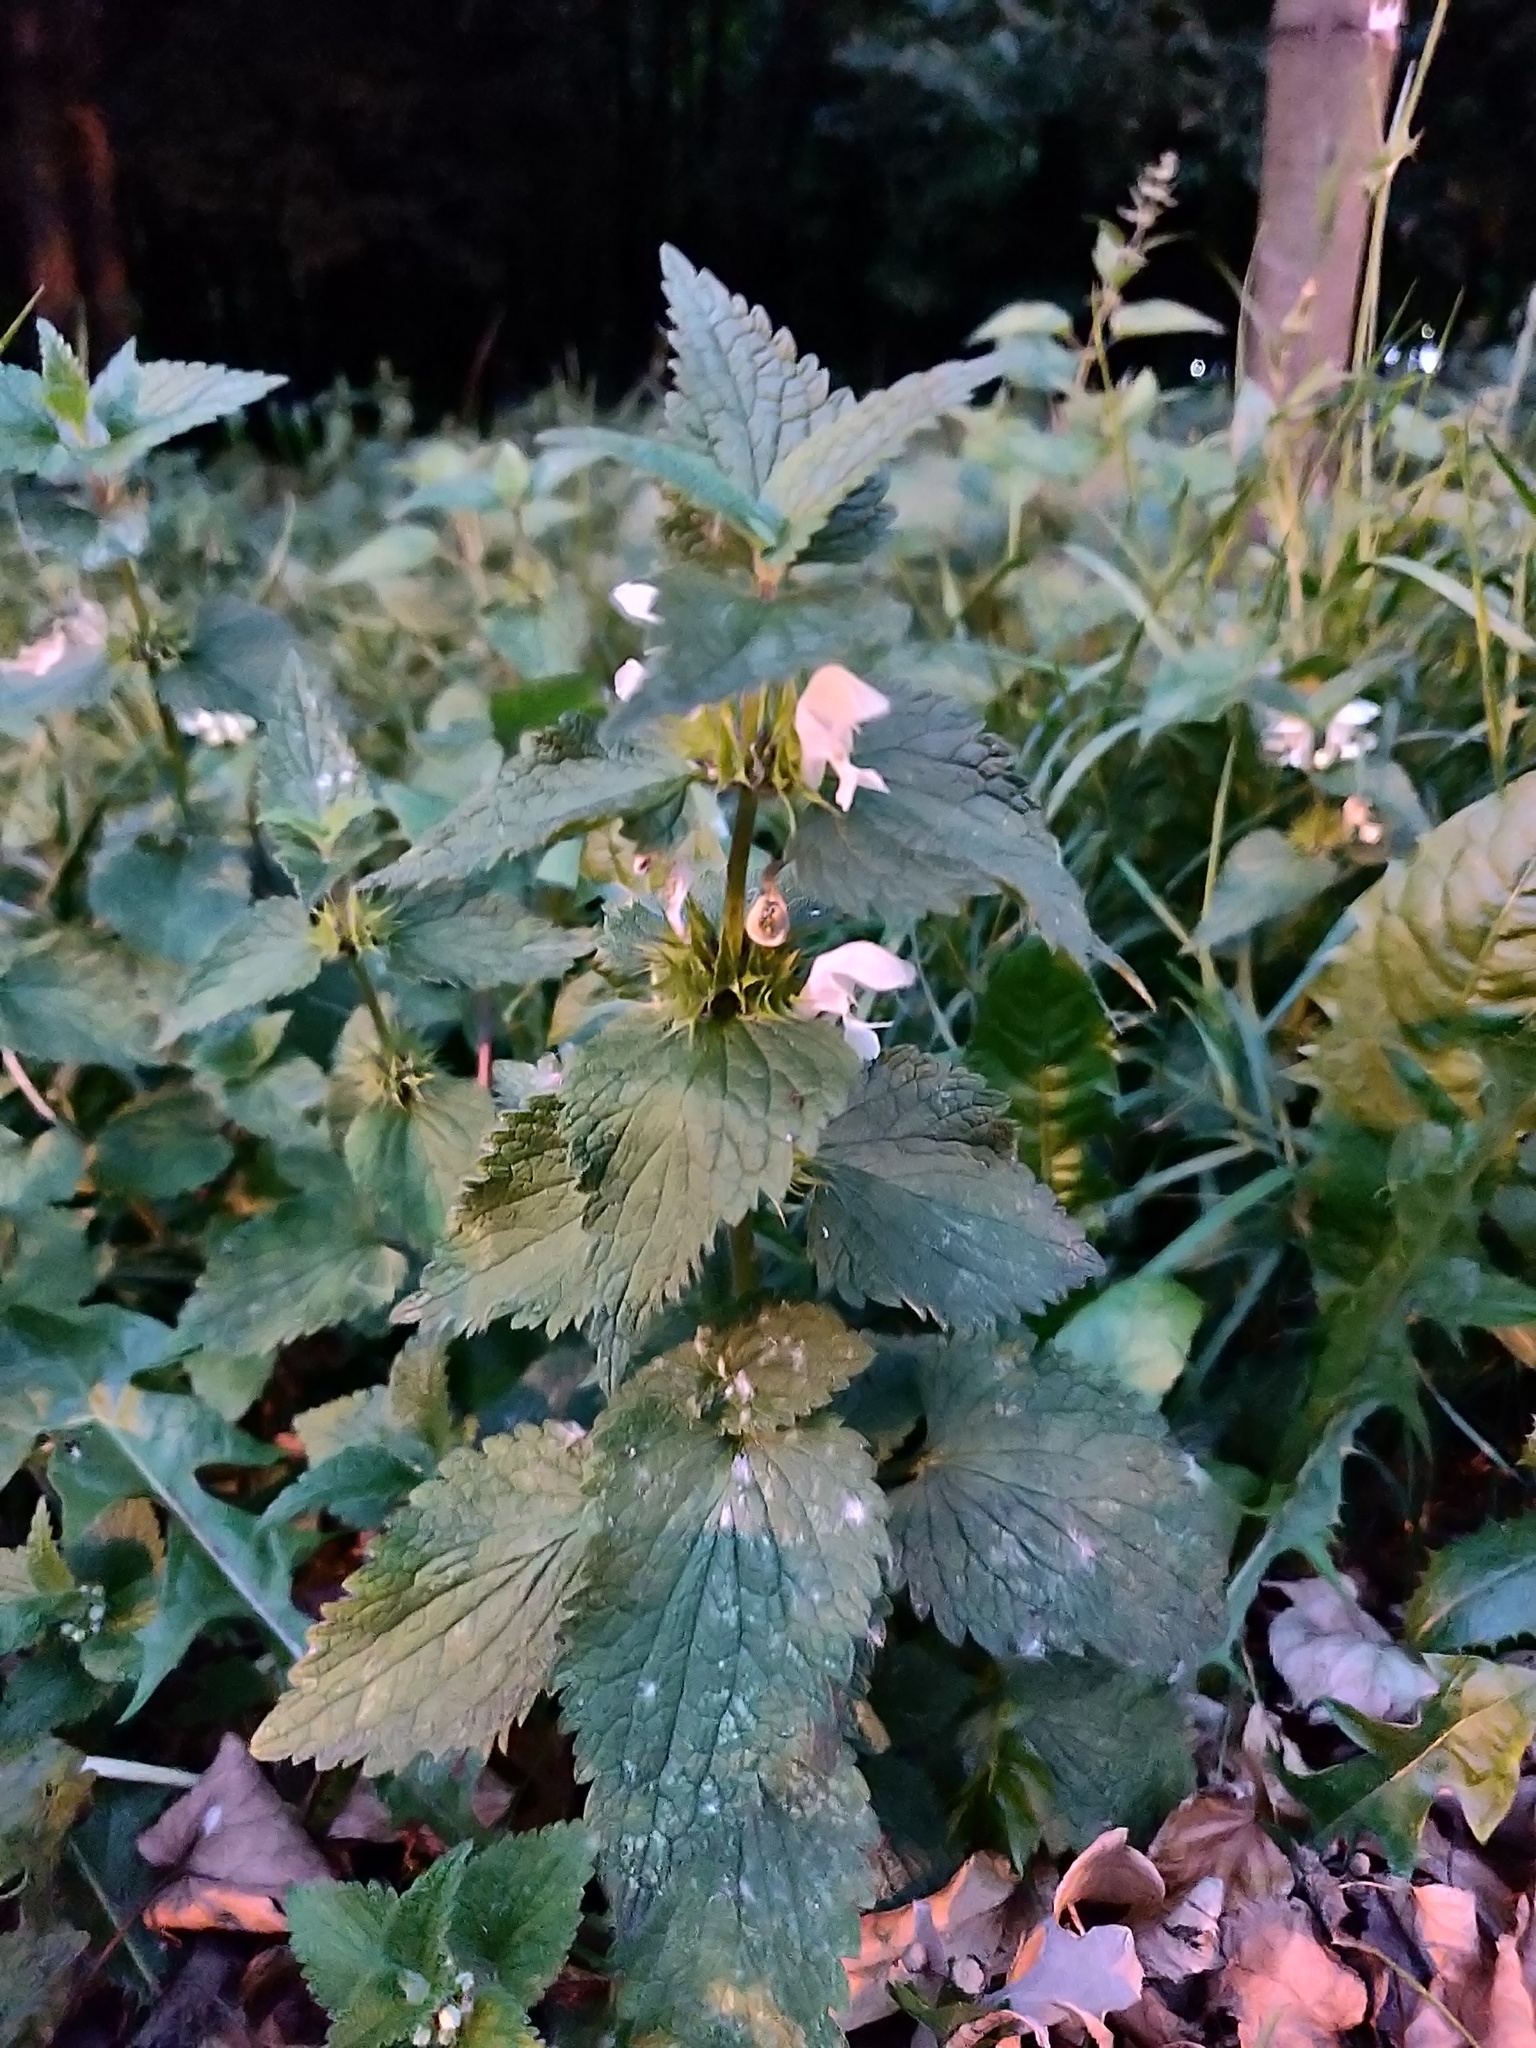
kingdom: Plantae
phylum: Tracheophyta
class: Magnoliopsida
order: Lamiales
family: Lamiaceae
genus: Lamium
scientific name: Lamium album
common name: White dead-nettle
